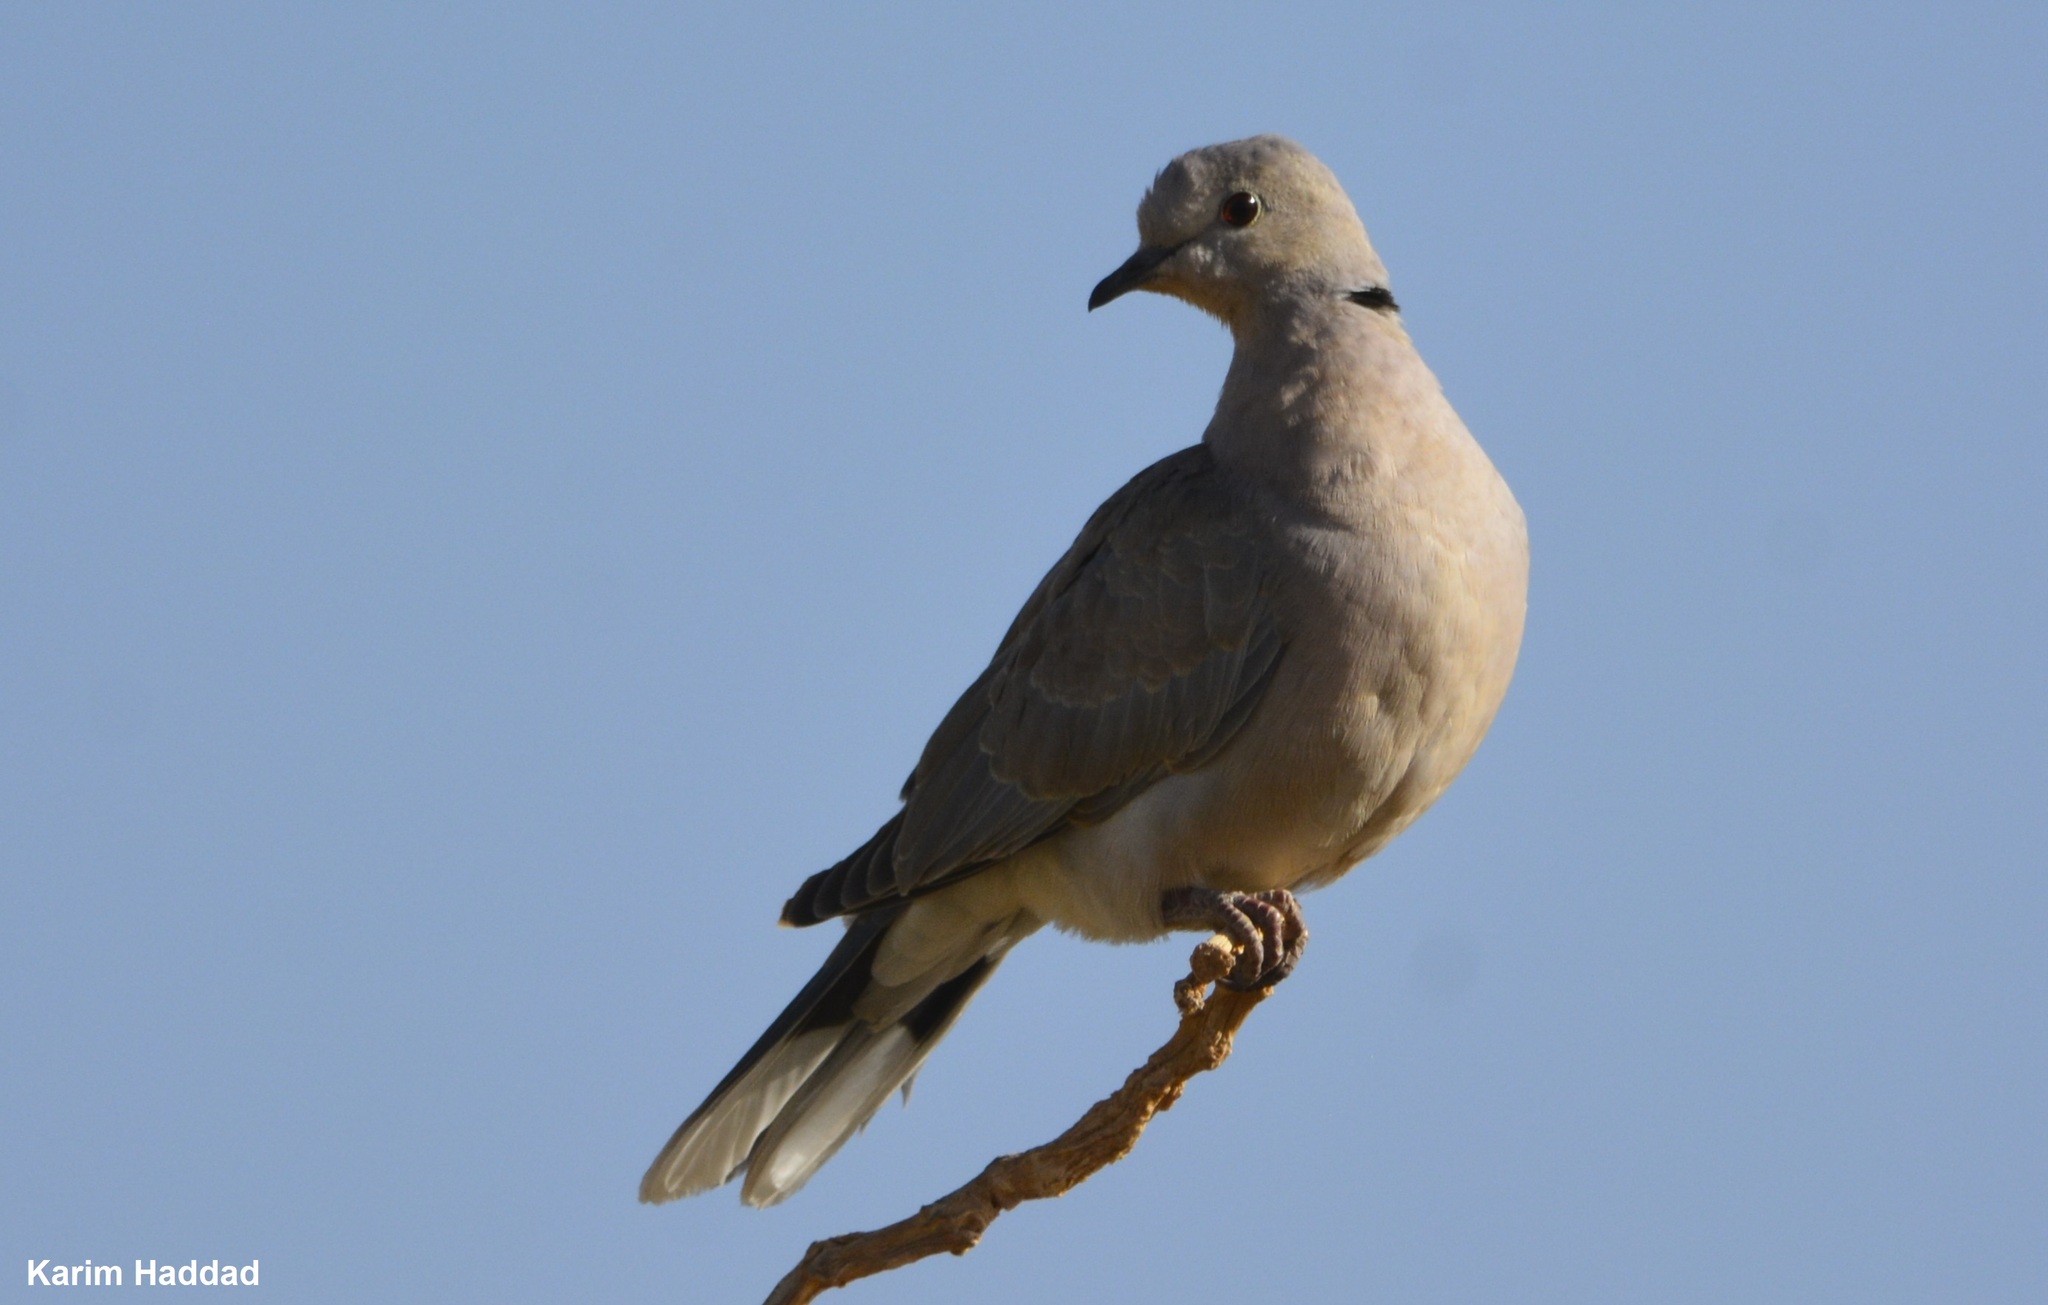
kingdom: Animalia
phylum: Chordata
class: Aves
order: Columbiformes
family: Columbidae
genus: Streptopelia
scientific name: Streptopelia roseogrisea
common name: African collared dove
